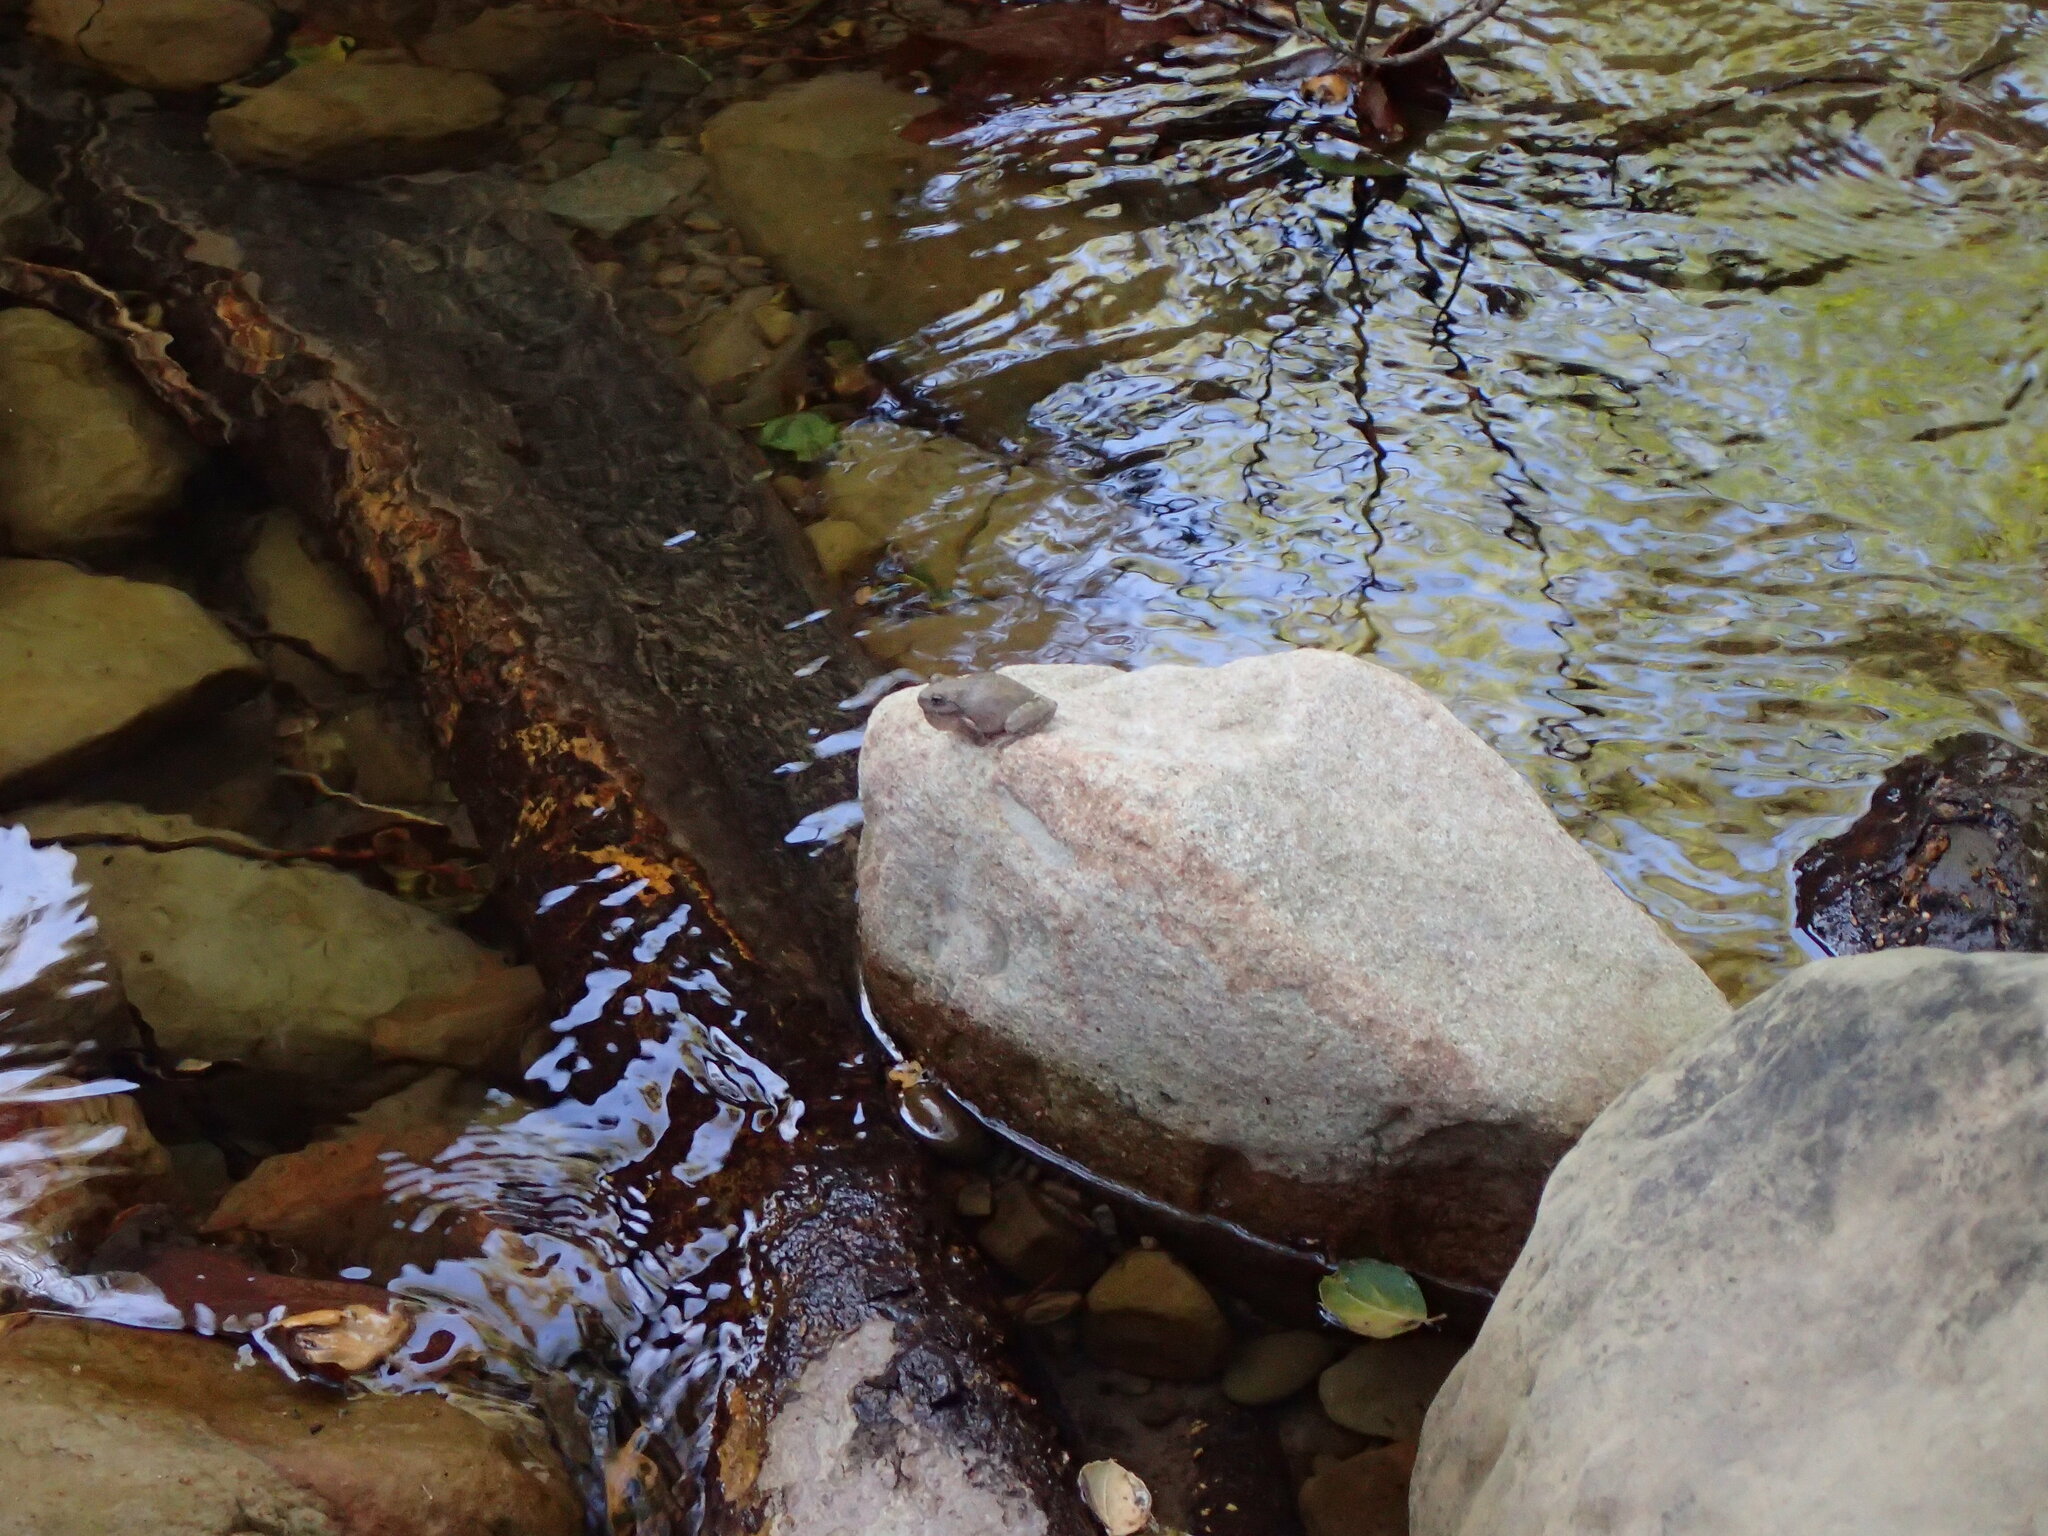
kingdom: Animalia
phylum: Chordata
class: Amphibia
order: Anura
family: Hylidae
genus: Pseudacris
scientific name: Pseudacris cadaverina
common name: California chorus frog
